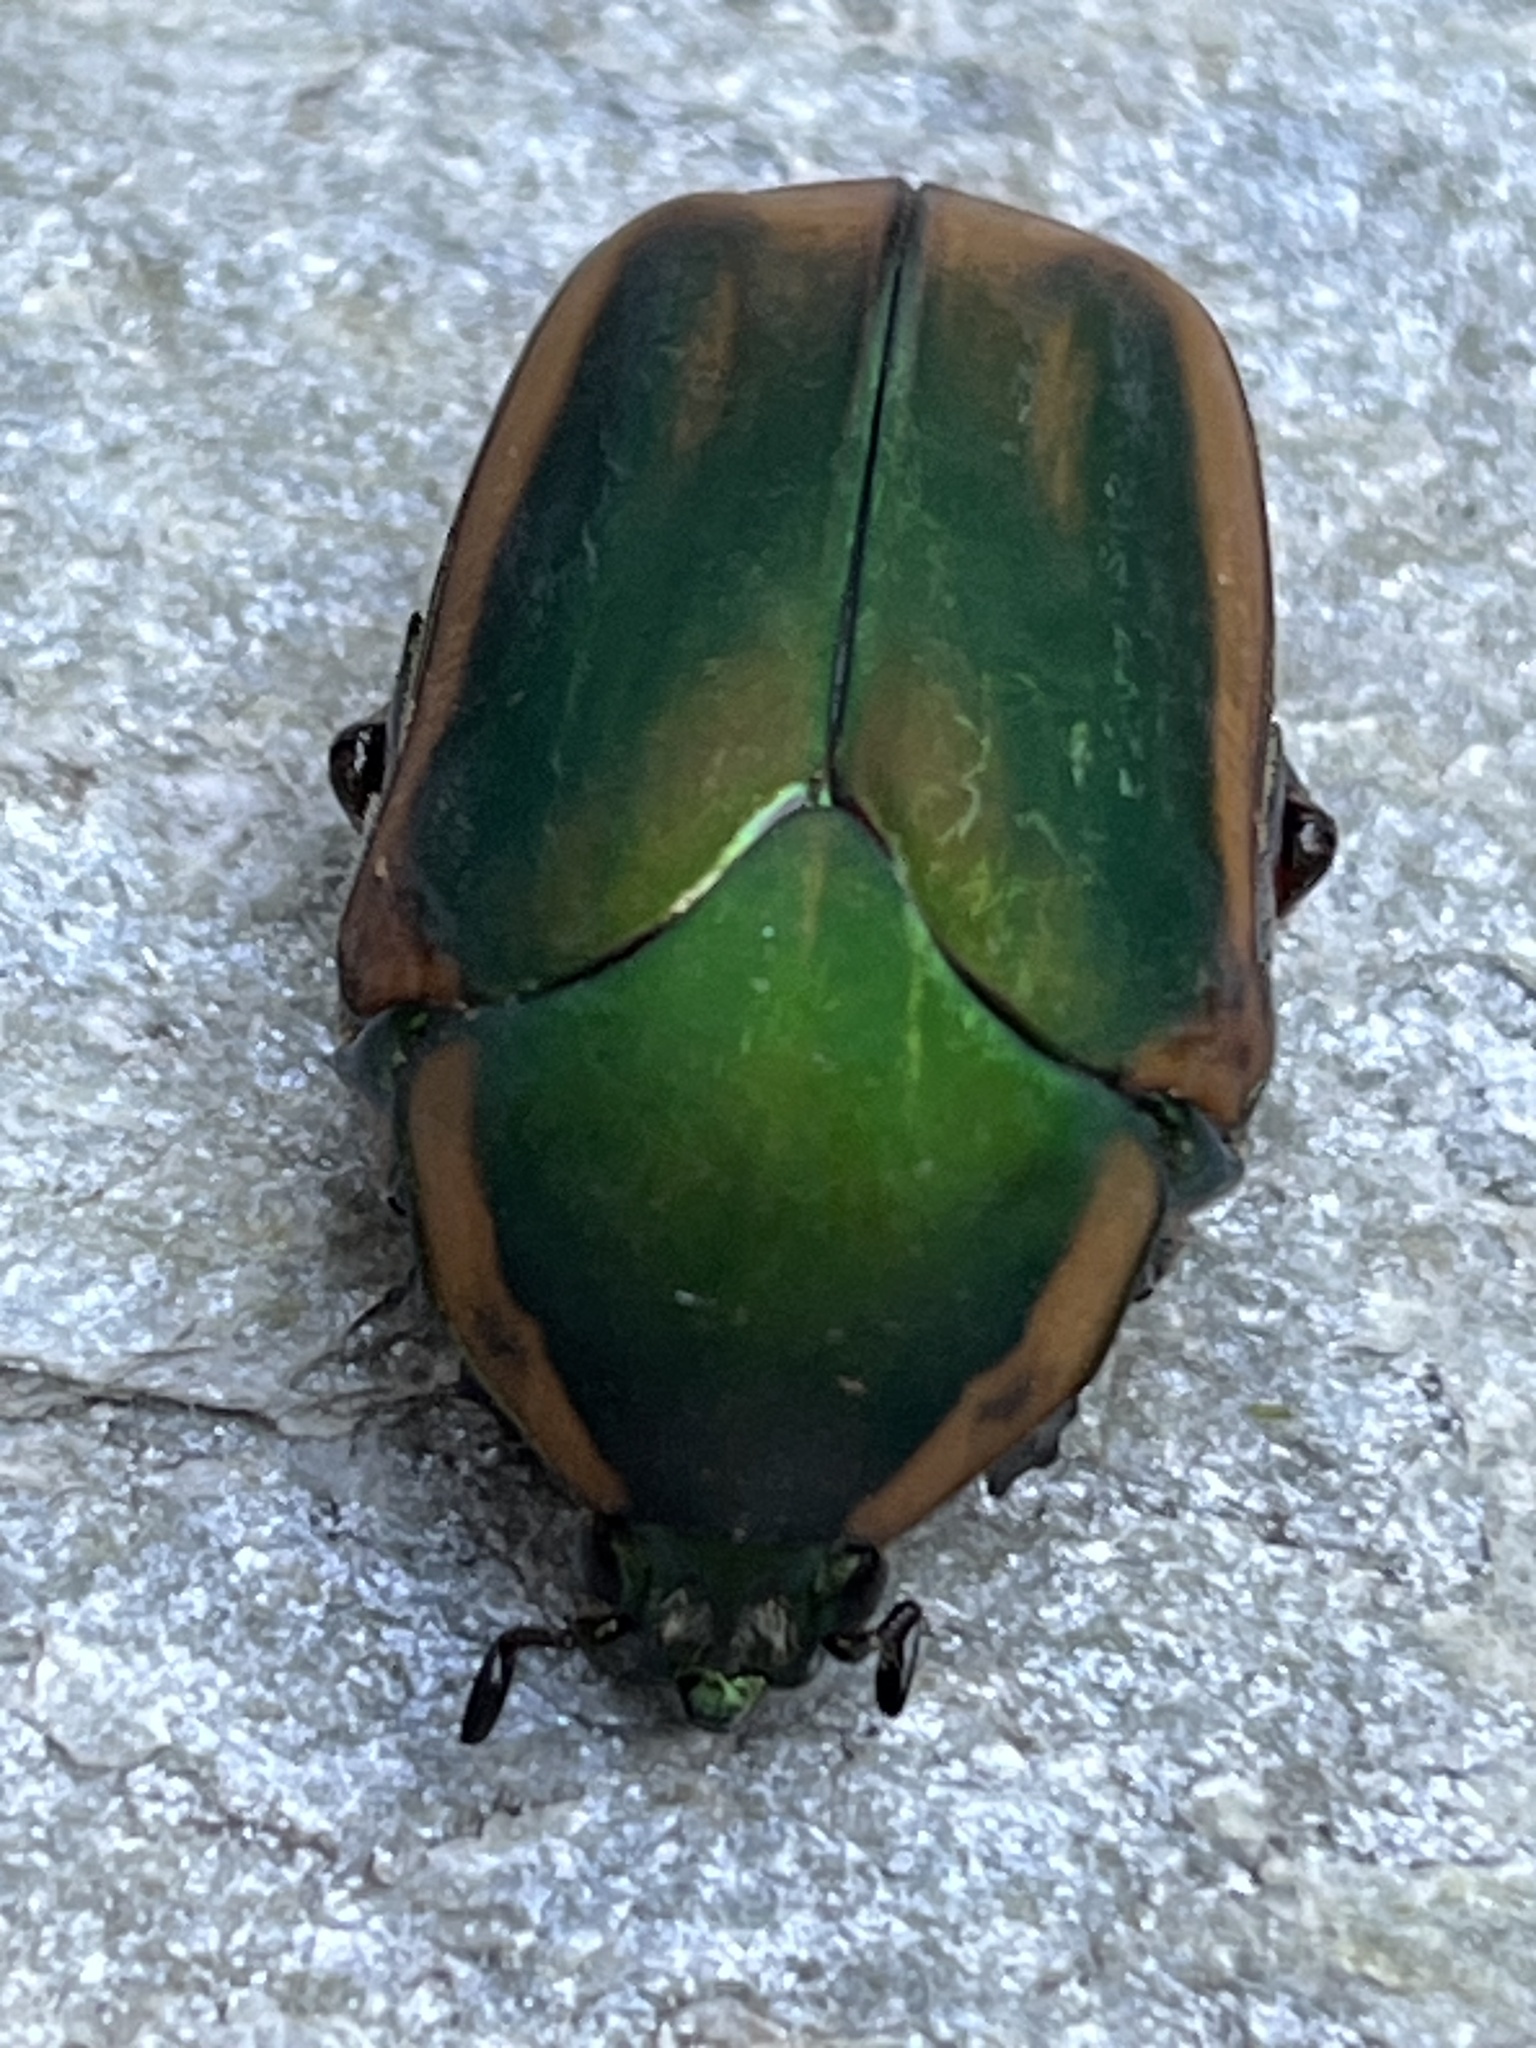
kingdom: Animalia
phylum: Arthropoda
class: Insecta
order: Coleoptera
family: Scarabaeidae
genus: Cotinis
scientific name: Cotinis nitida
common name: Common green june beetle
